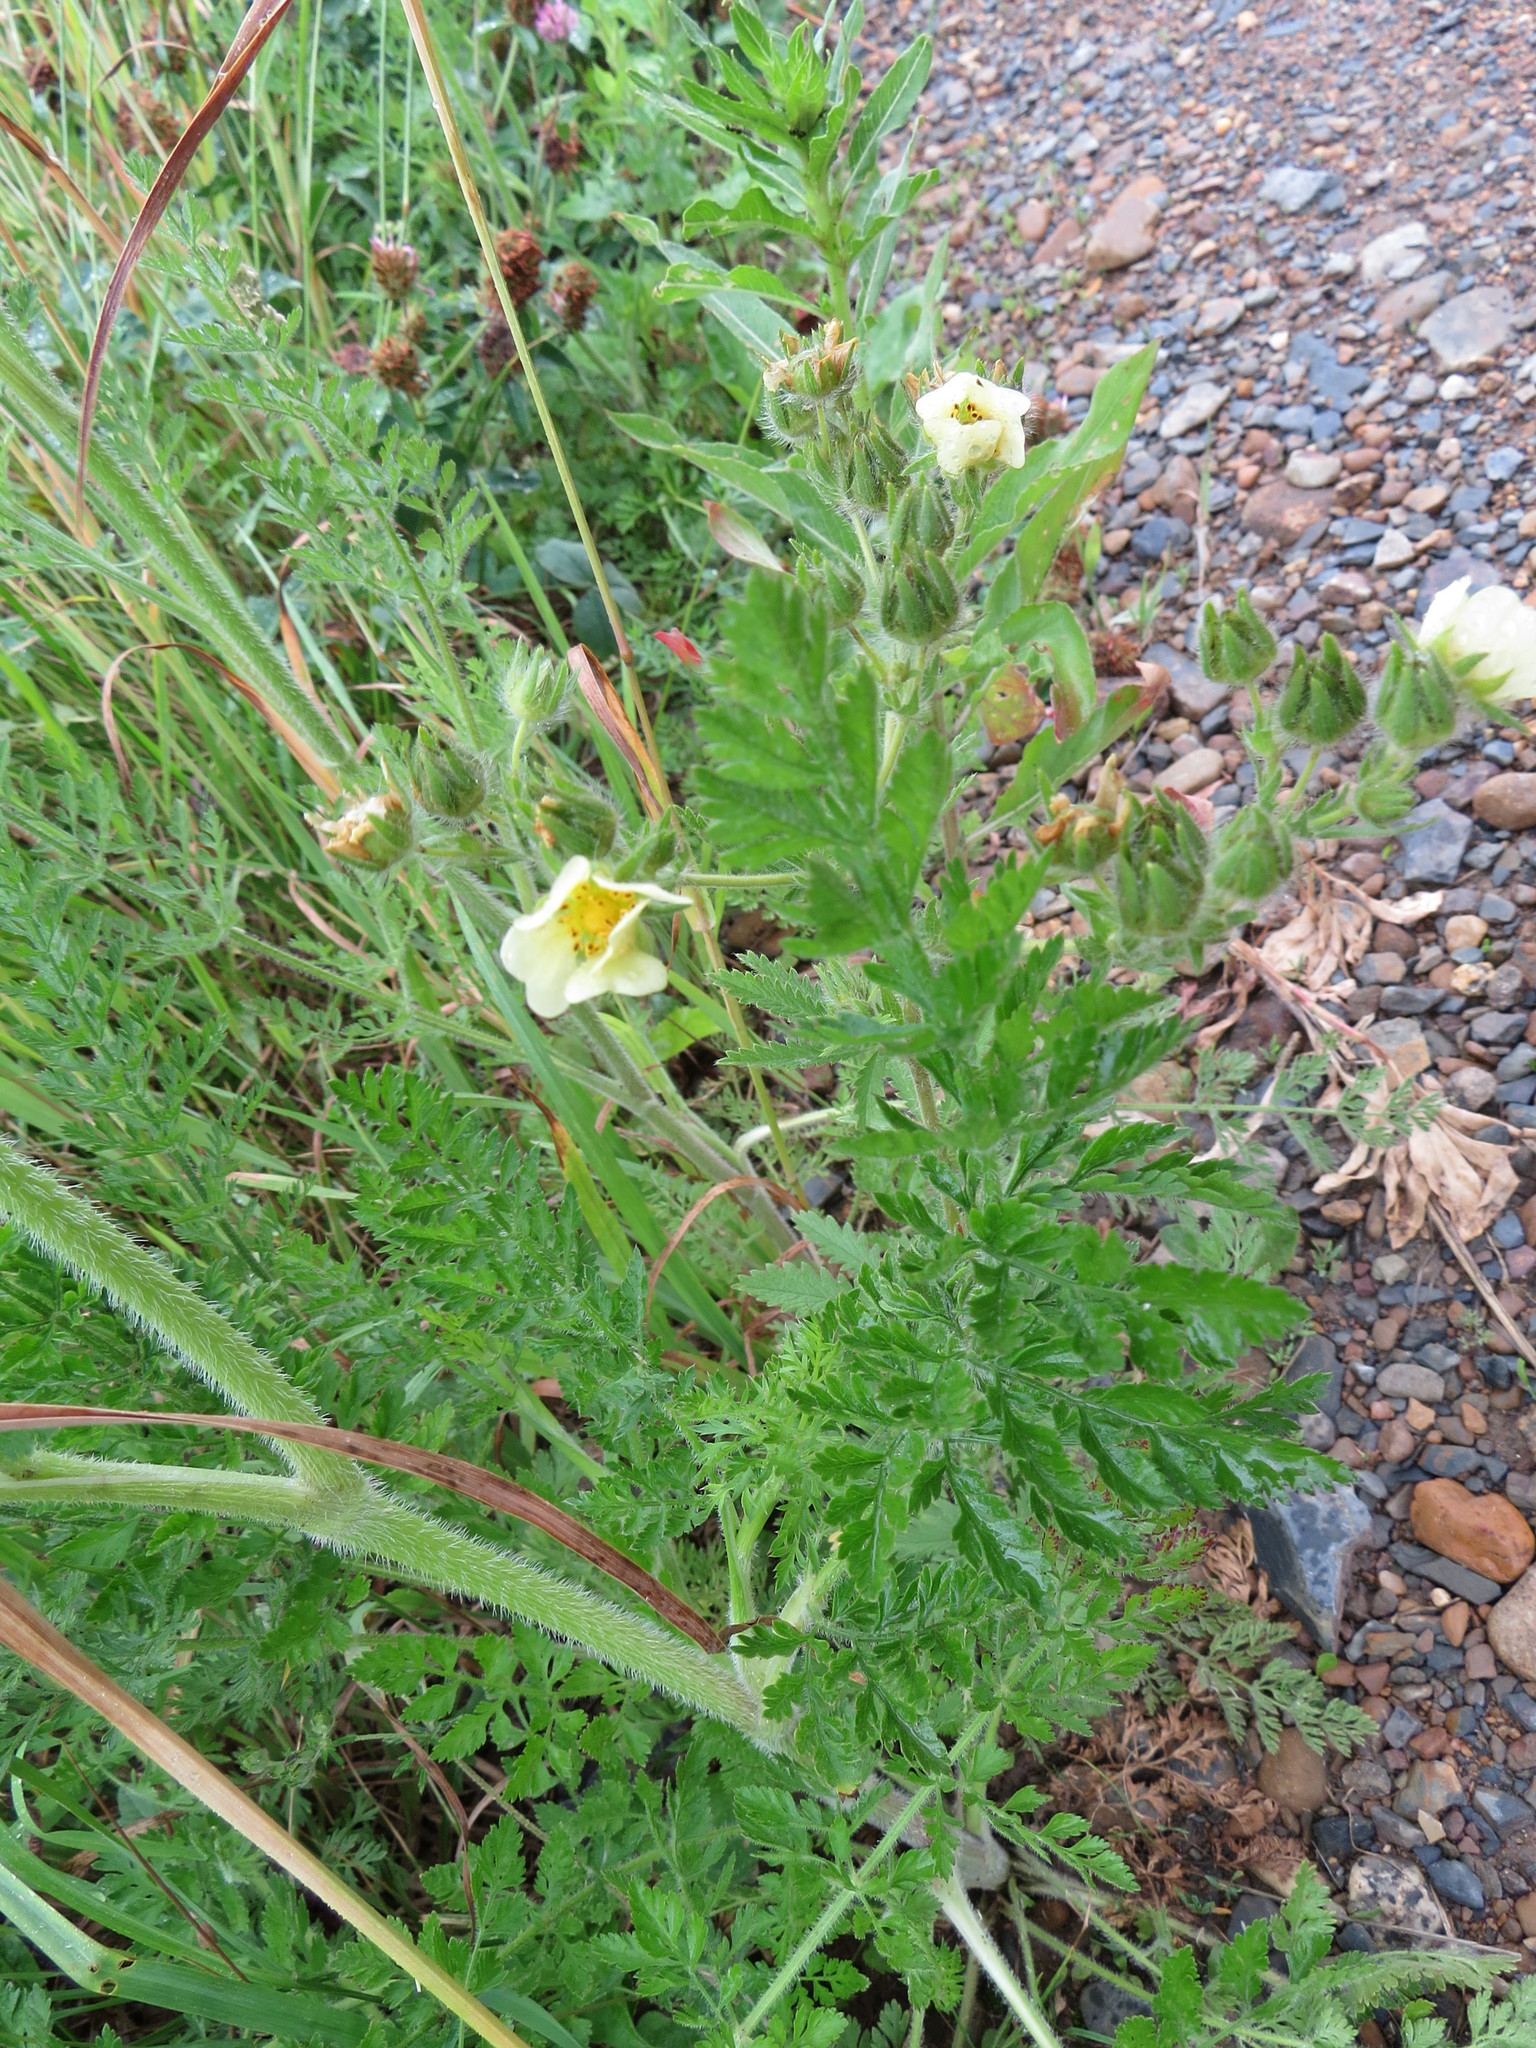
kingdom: Plantae
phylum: Tracheophyta
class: Magnoliopsida
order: Rosales
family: Rosaceae
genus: Potentilla
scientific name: Potentilla recta
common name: Sulphur cinquefoil
